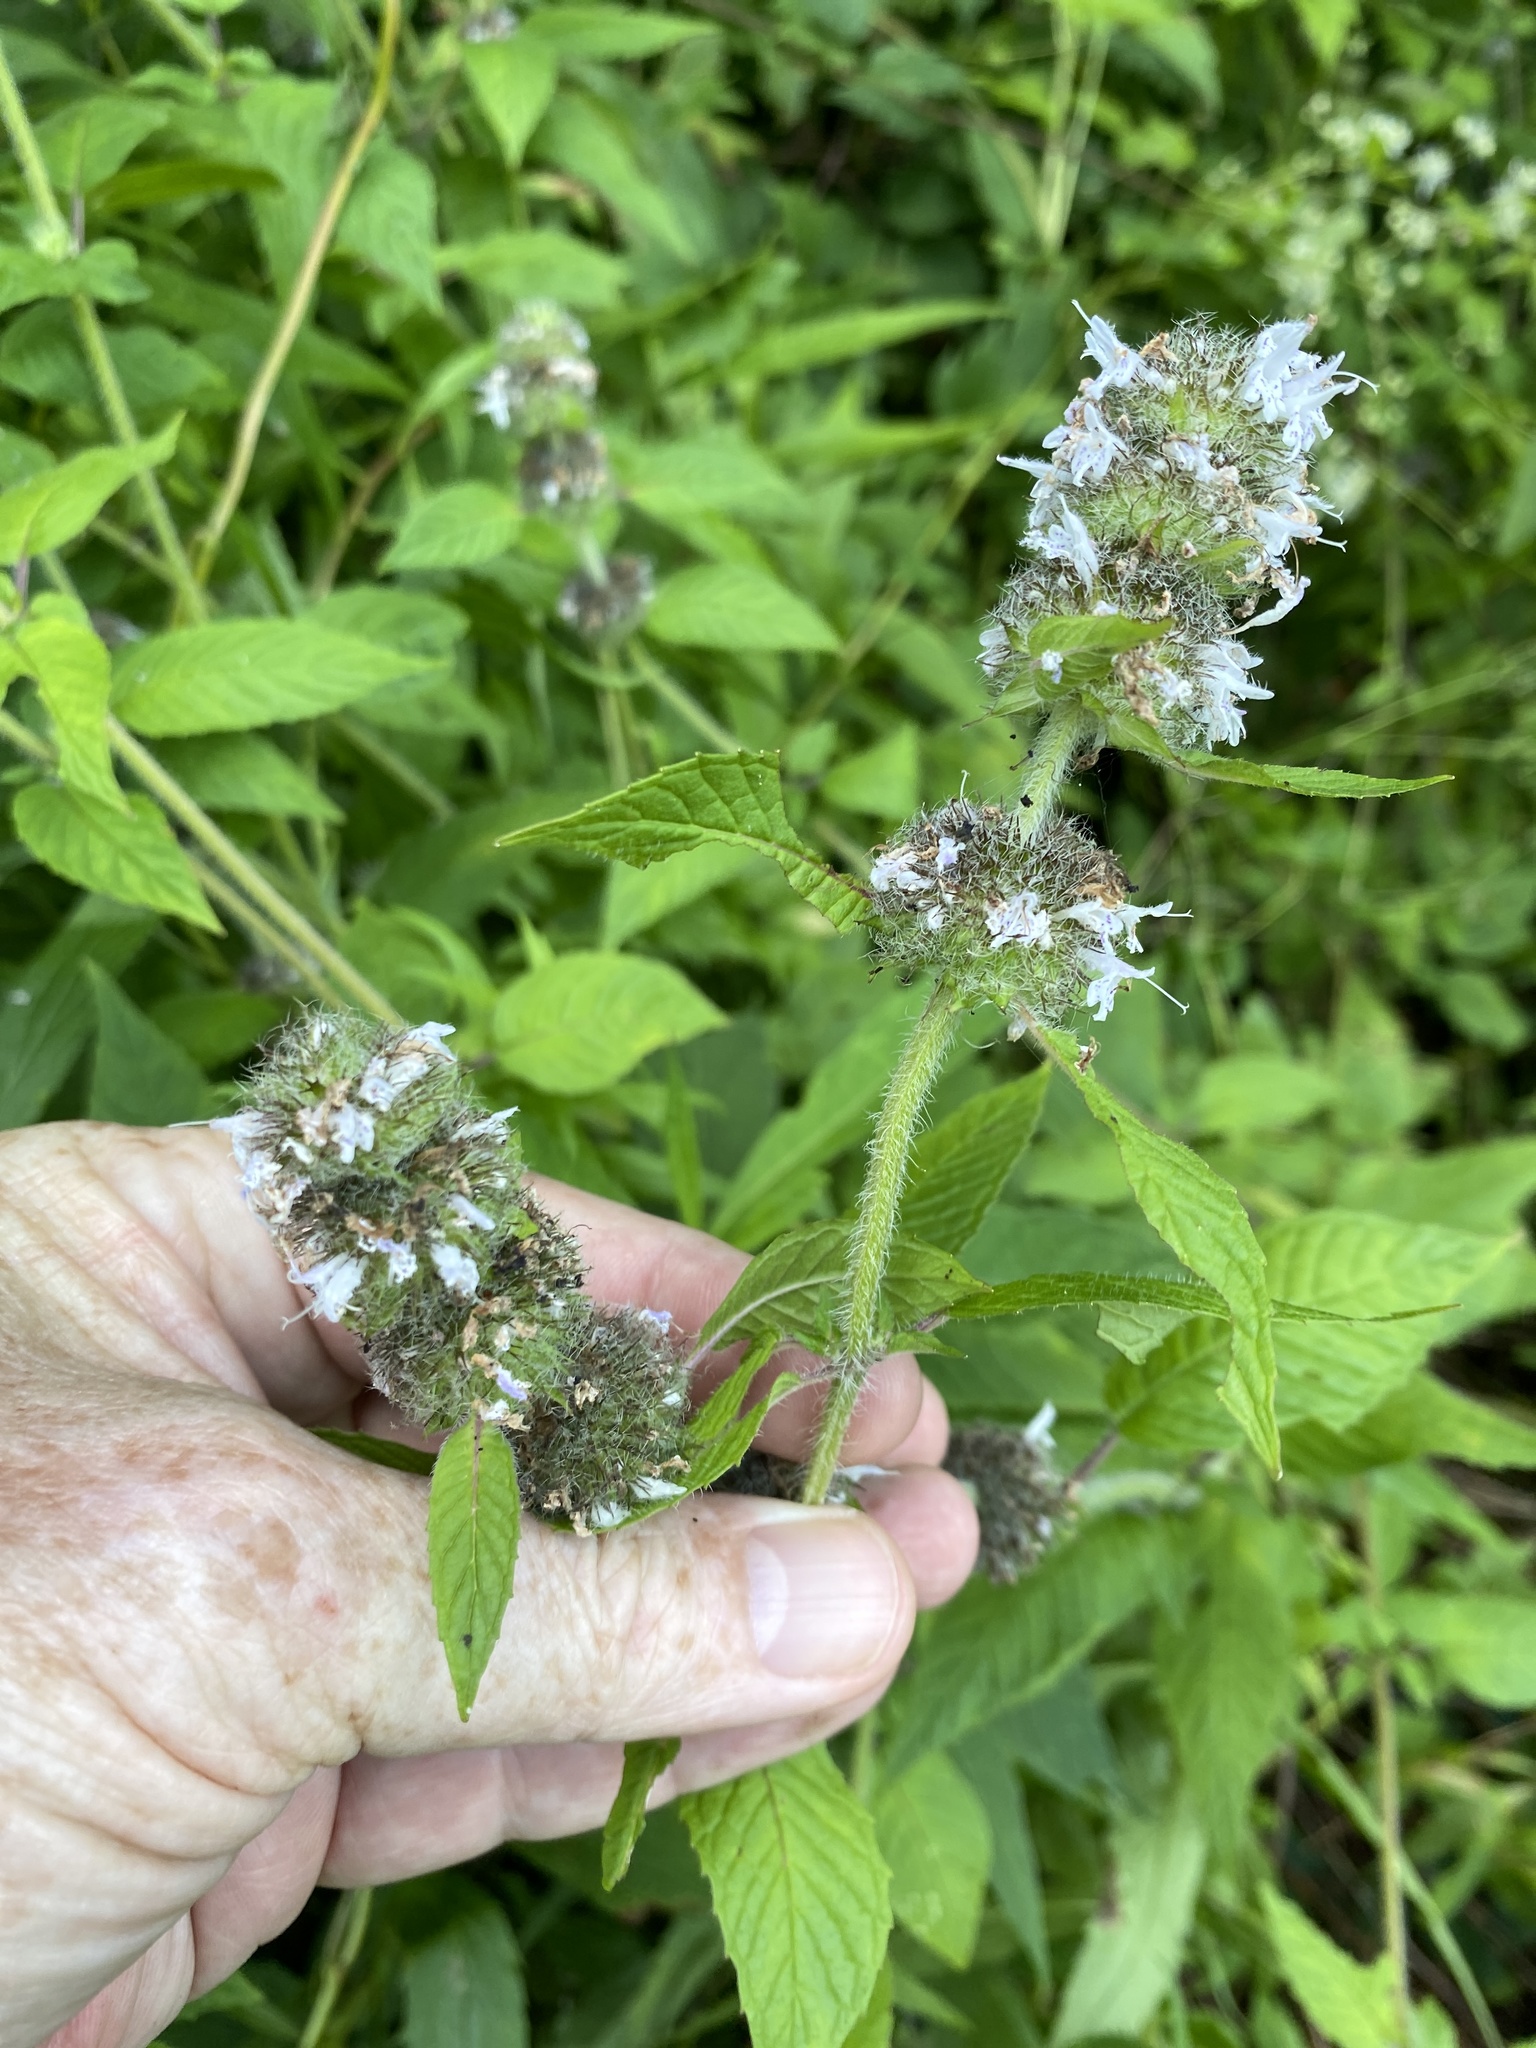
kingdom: Plantae
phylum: Tracheophyta
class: Magnoliopsida
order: Lamiales
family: Lamiaceae
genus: Blephilia
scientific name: Blephilia hirsuta
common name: Hairy blephilia
